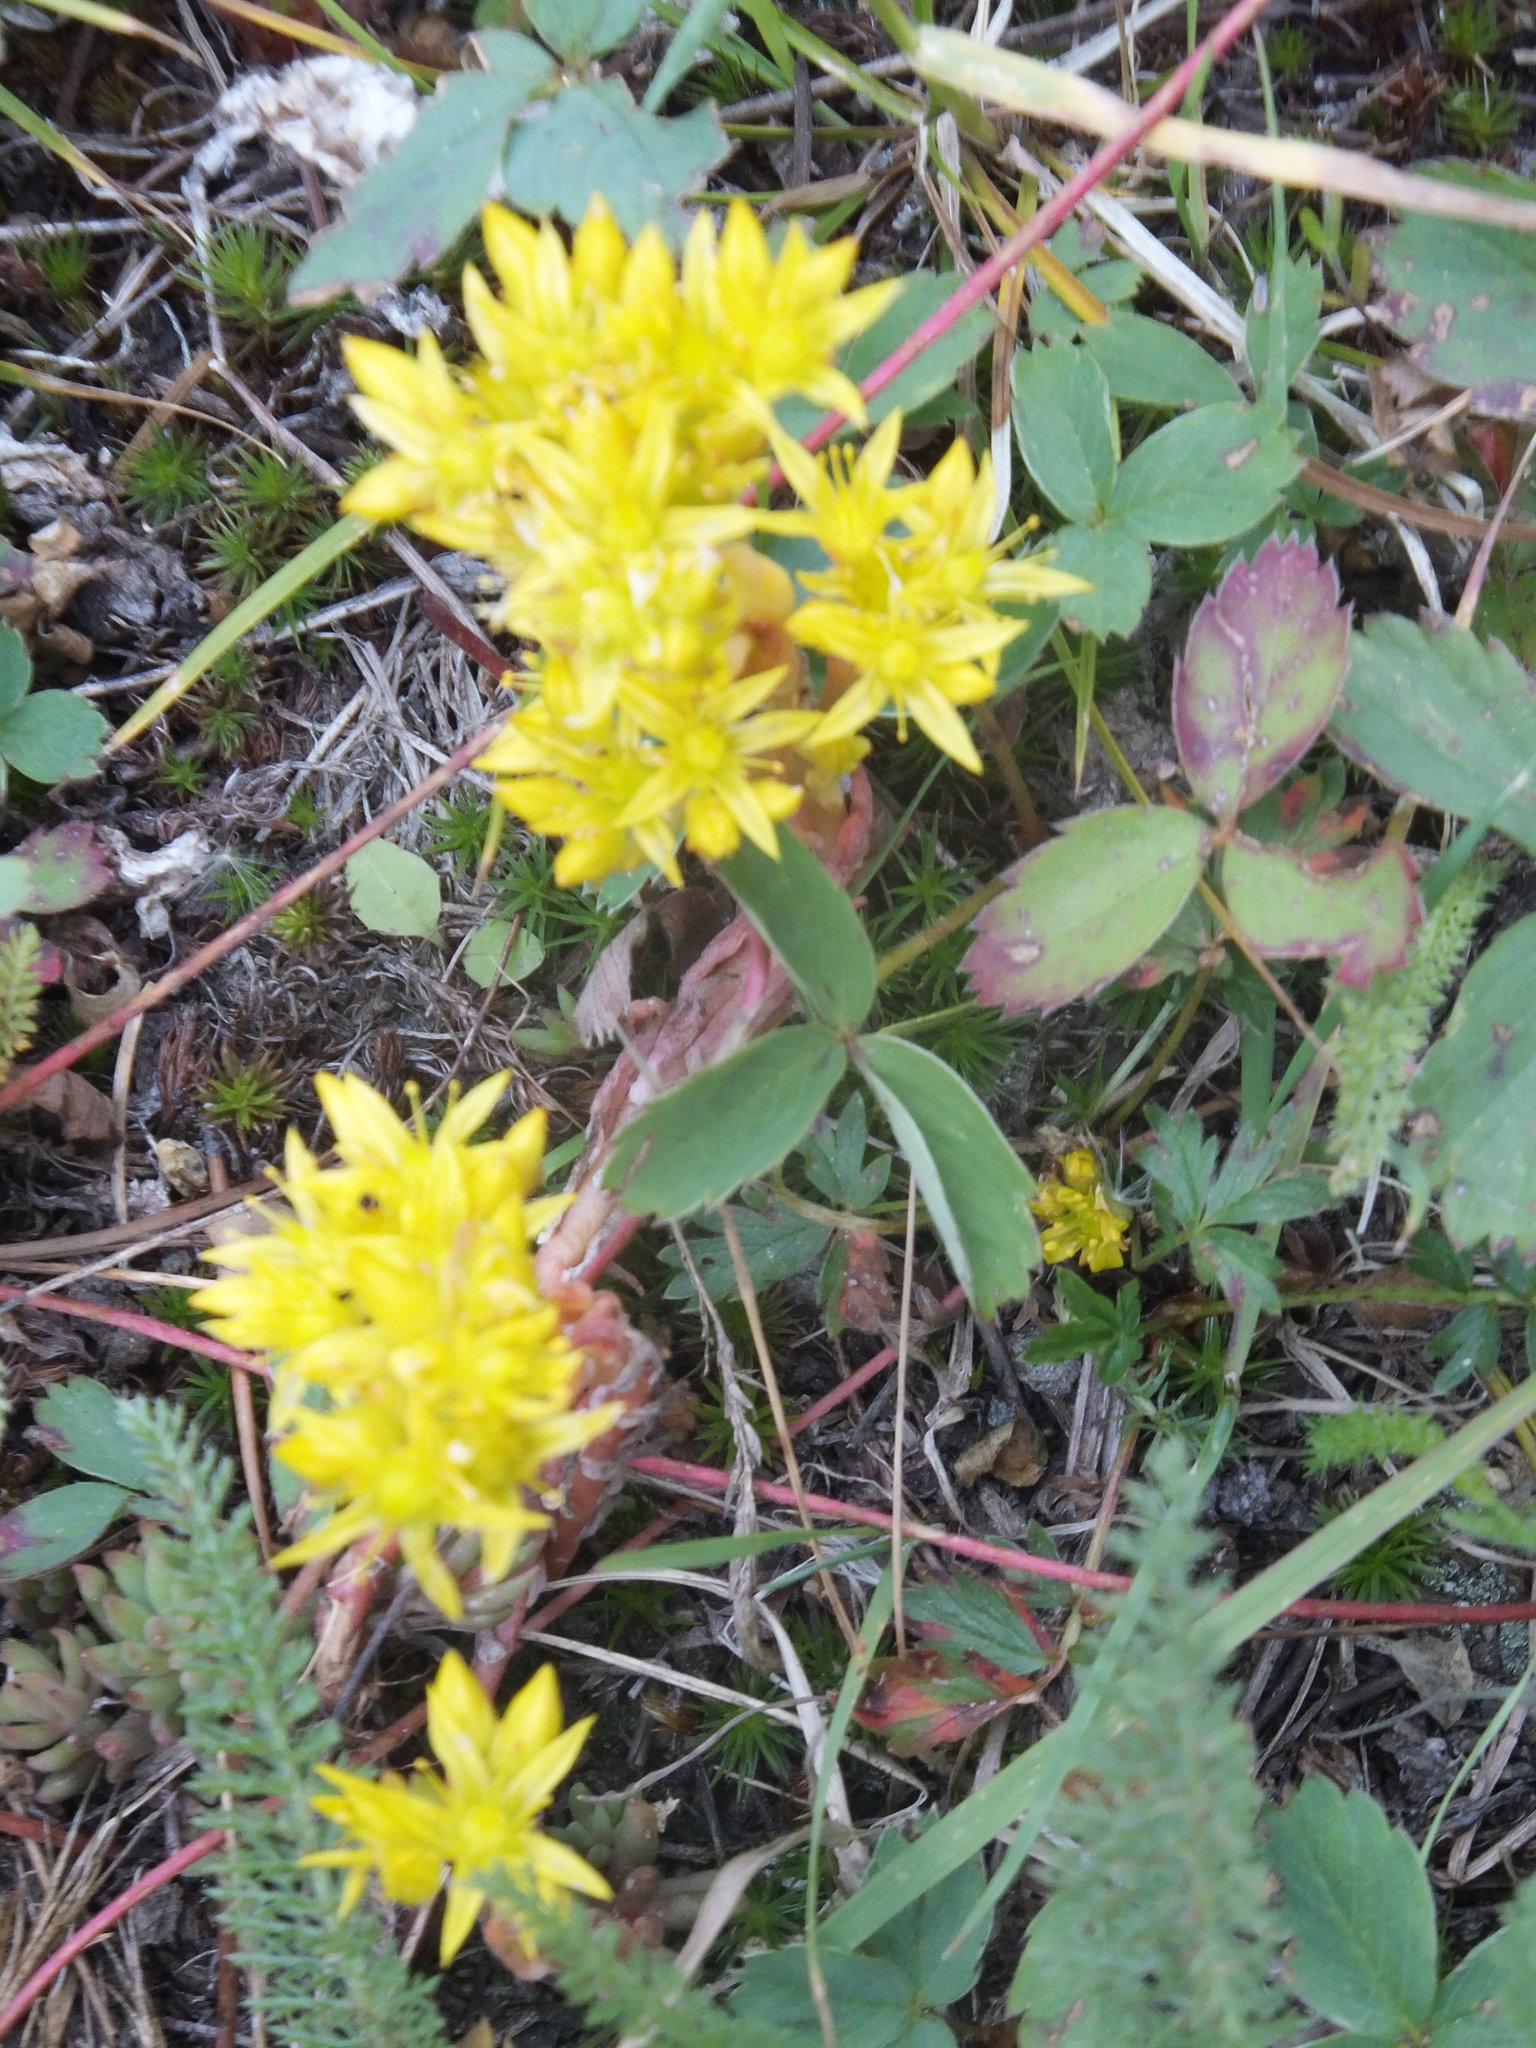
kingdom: Plantae
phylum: Tracheophyta
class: Magnoliopsida
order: Saxifragales
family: Crassulaceae
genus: Sedum
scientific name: Sedum lanceolatum
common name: Common stonecrop
